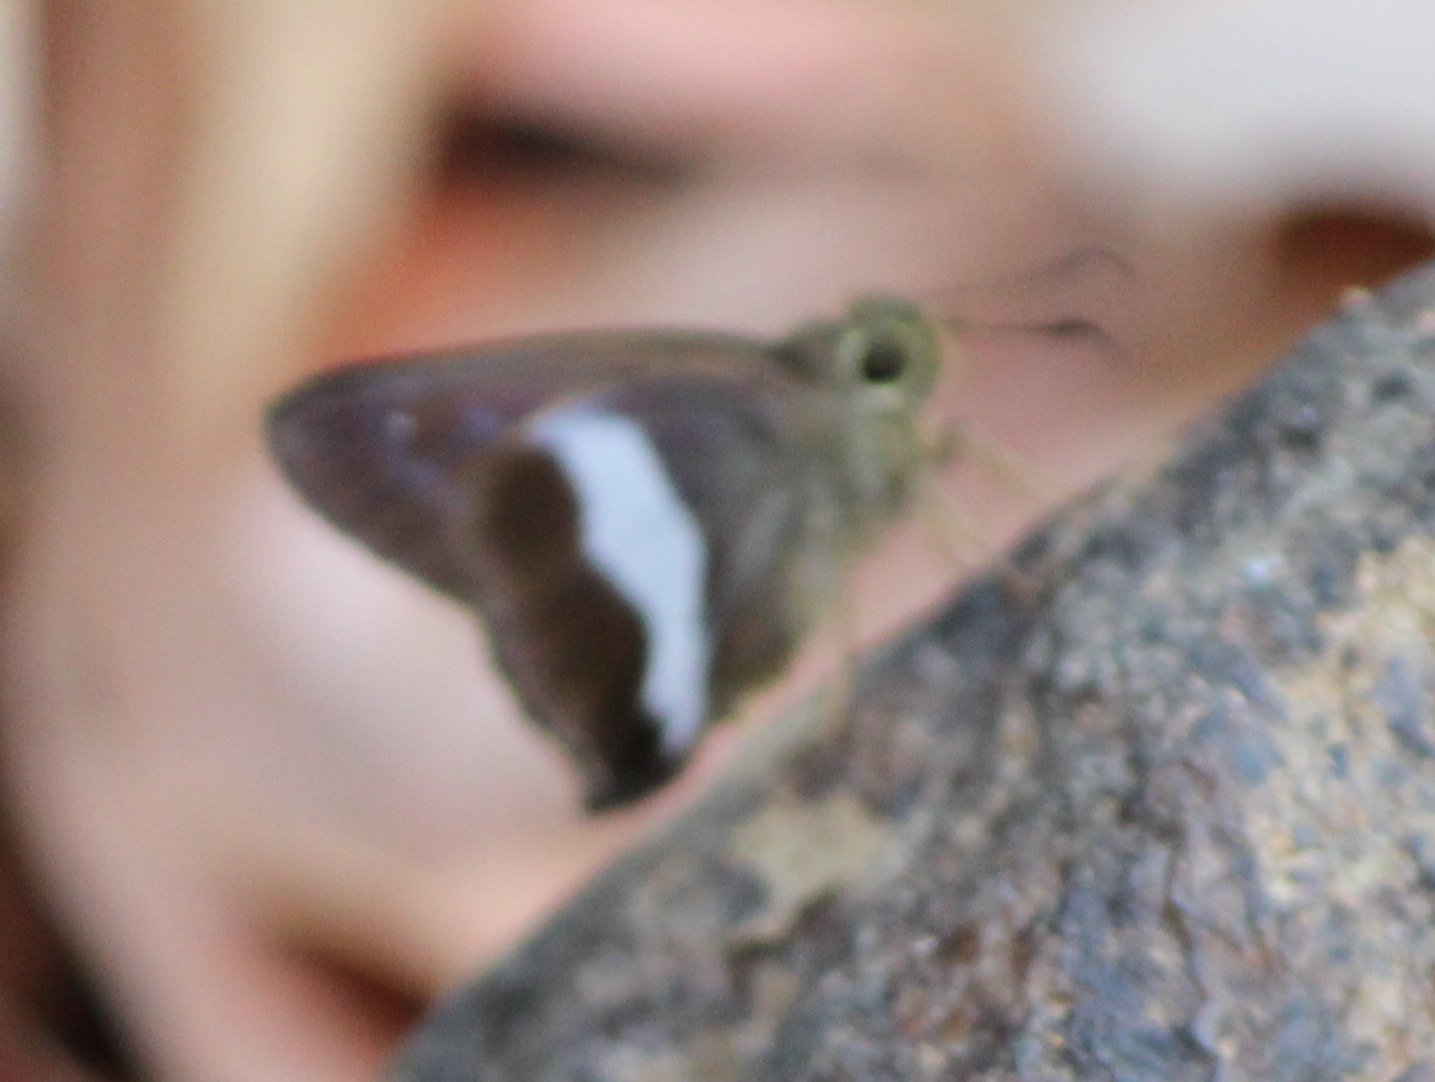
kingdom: Animalia
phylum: Arthropoda
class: Insecta
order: Lepidoptera
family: Hesperiidae
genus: Hasora
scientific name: Hasora taminatus
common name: White banded awl
